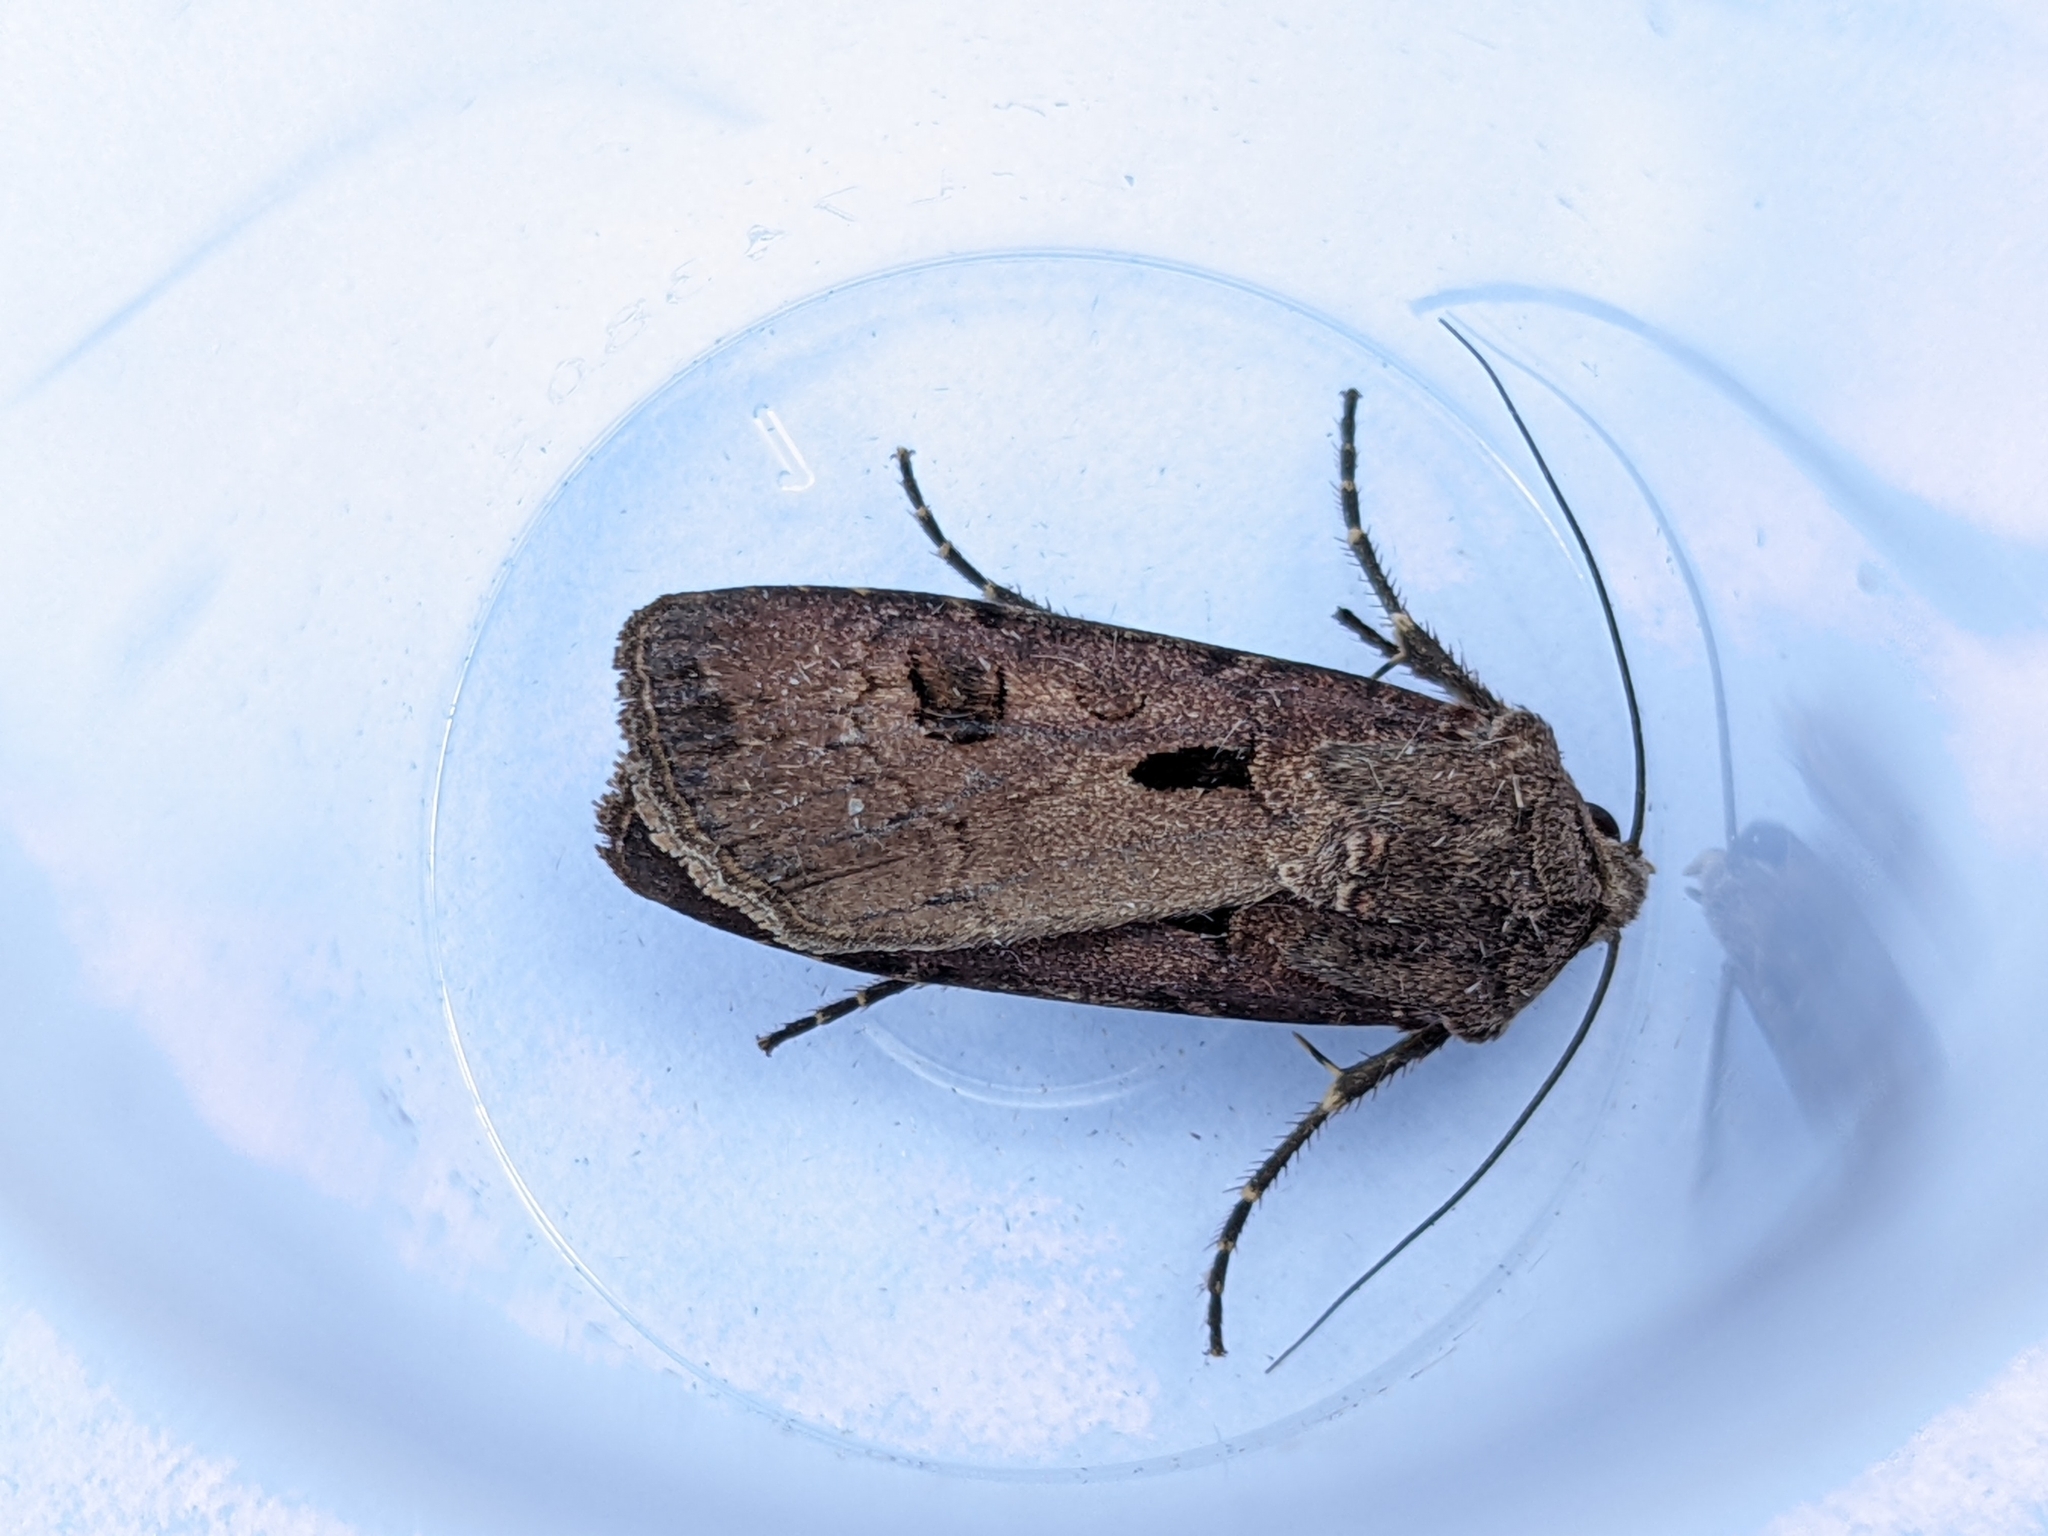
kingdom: Animalia
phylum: Arthropoda
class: Insecta
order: Lepidoptera
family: Noctuidae
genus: Agrotis
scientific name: Agrotis exclamationis
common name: Heart and dart
